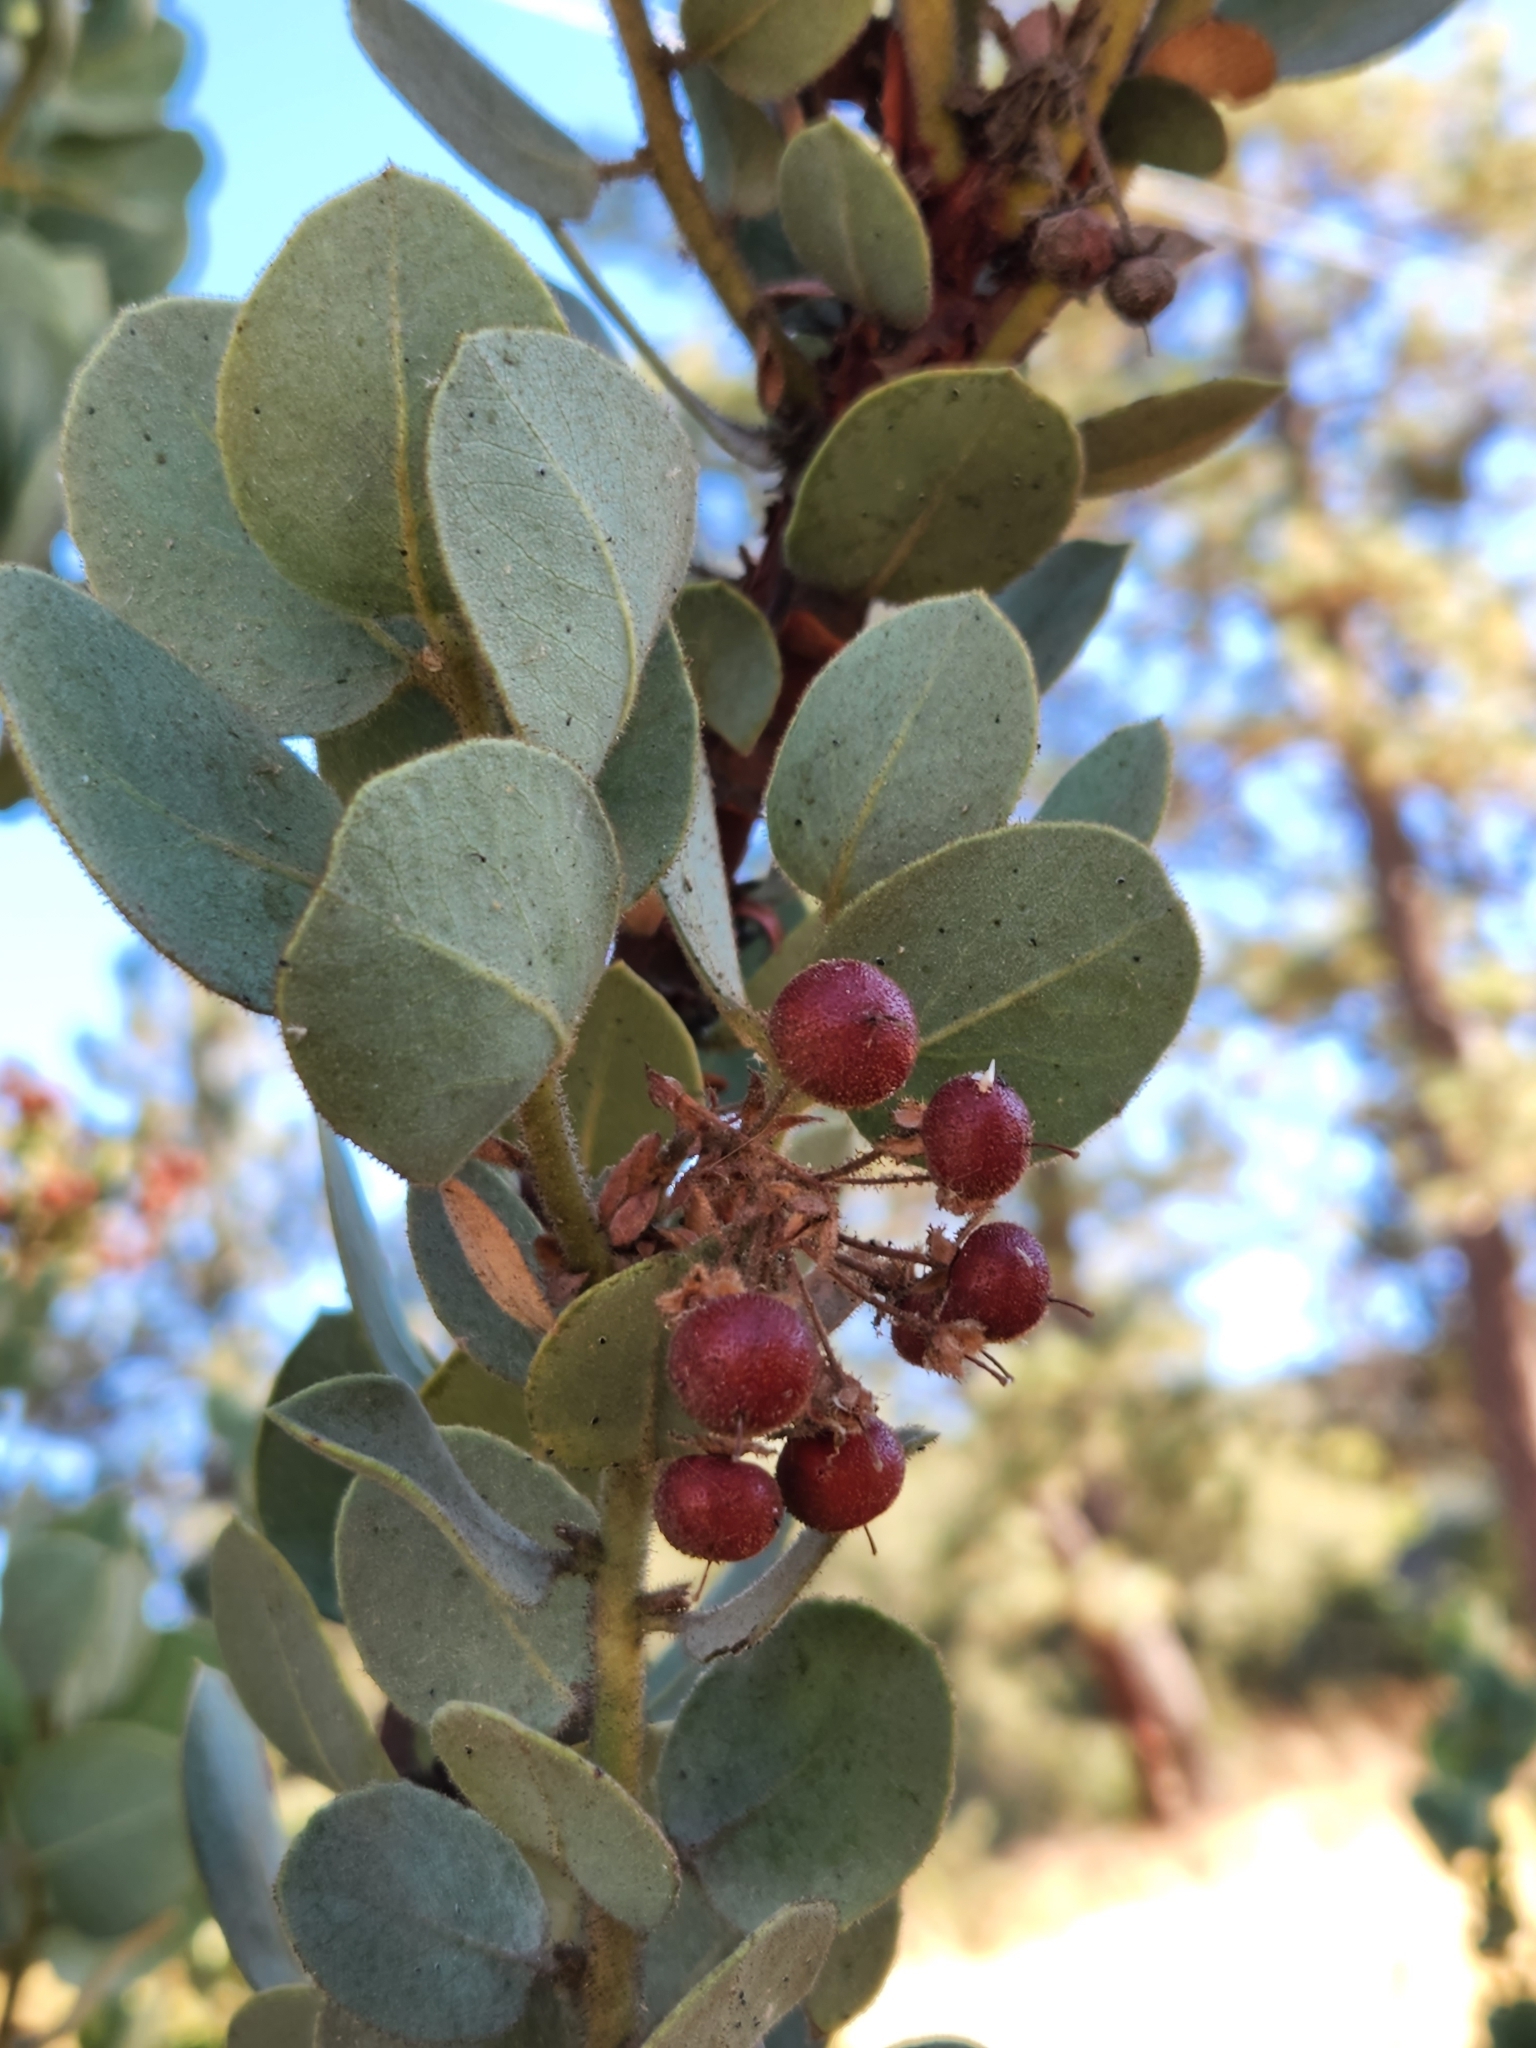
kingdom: Plantae
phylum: Tracheophyta
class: Magnoliopsida
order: Ericales
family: Ericaceae
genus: Arctostaphylos
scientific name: Arctostaphylos pringlei
